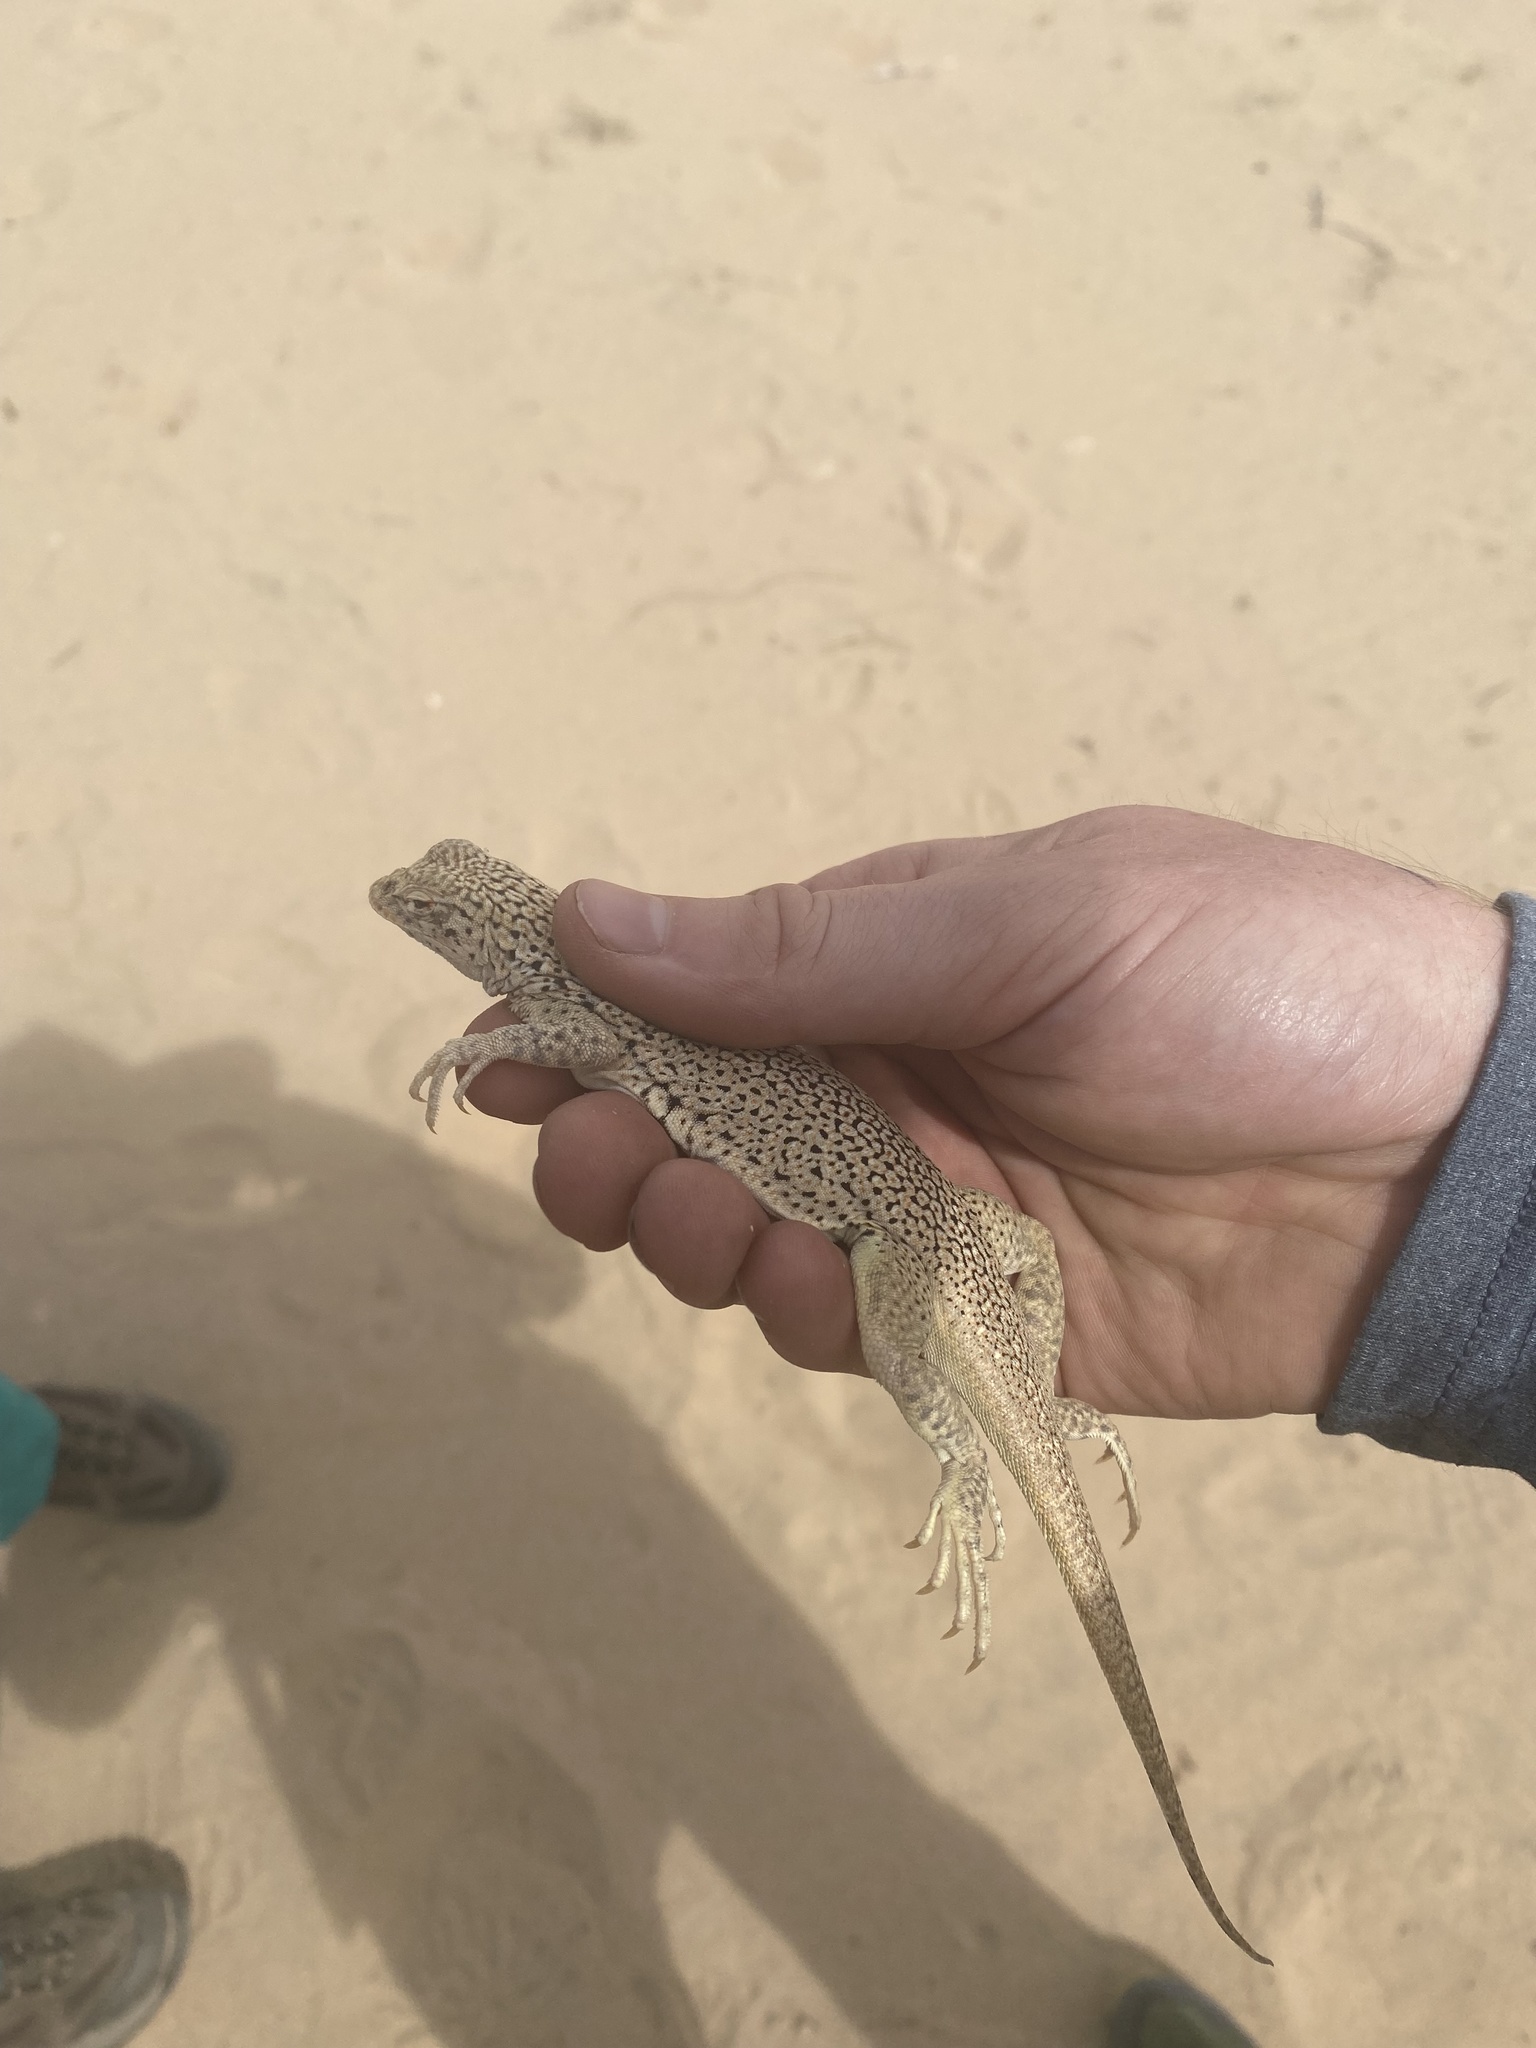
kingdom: Animalia
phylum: Chordata
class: Squamata
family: Phrynosomatidae
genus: Uma
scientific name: Uma scoparia
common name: Mojave fringe-toed lizard
